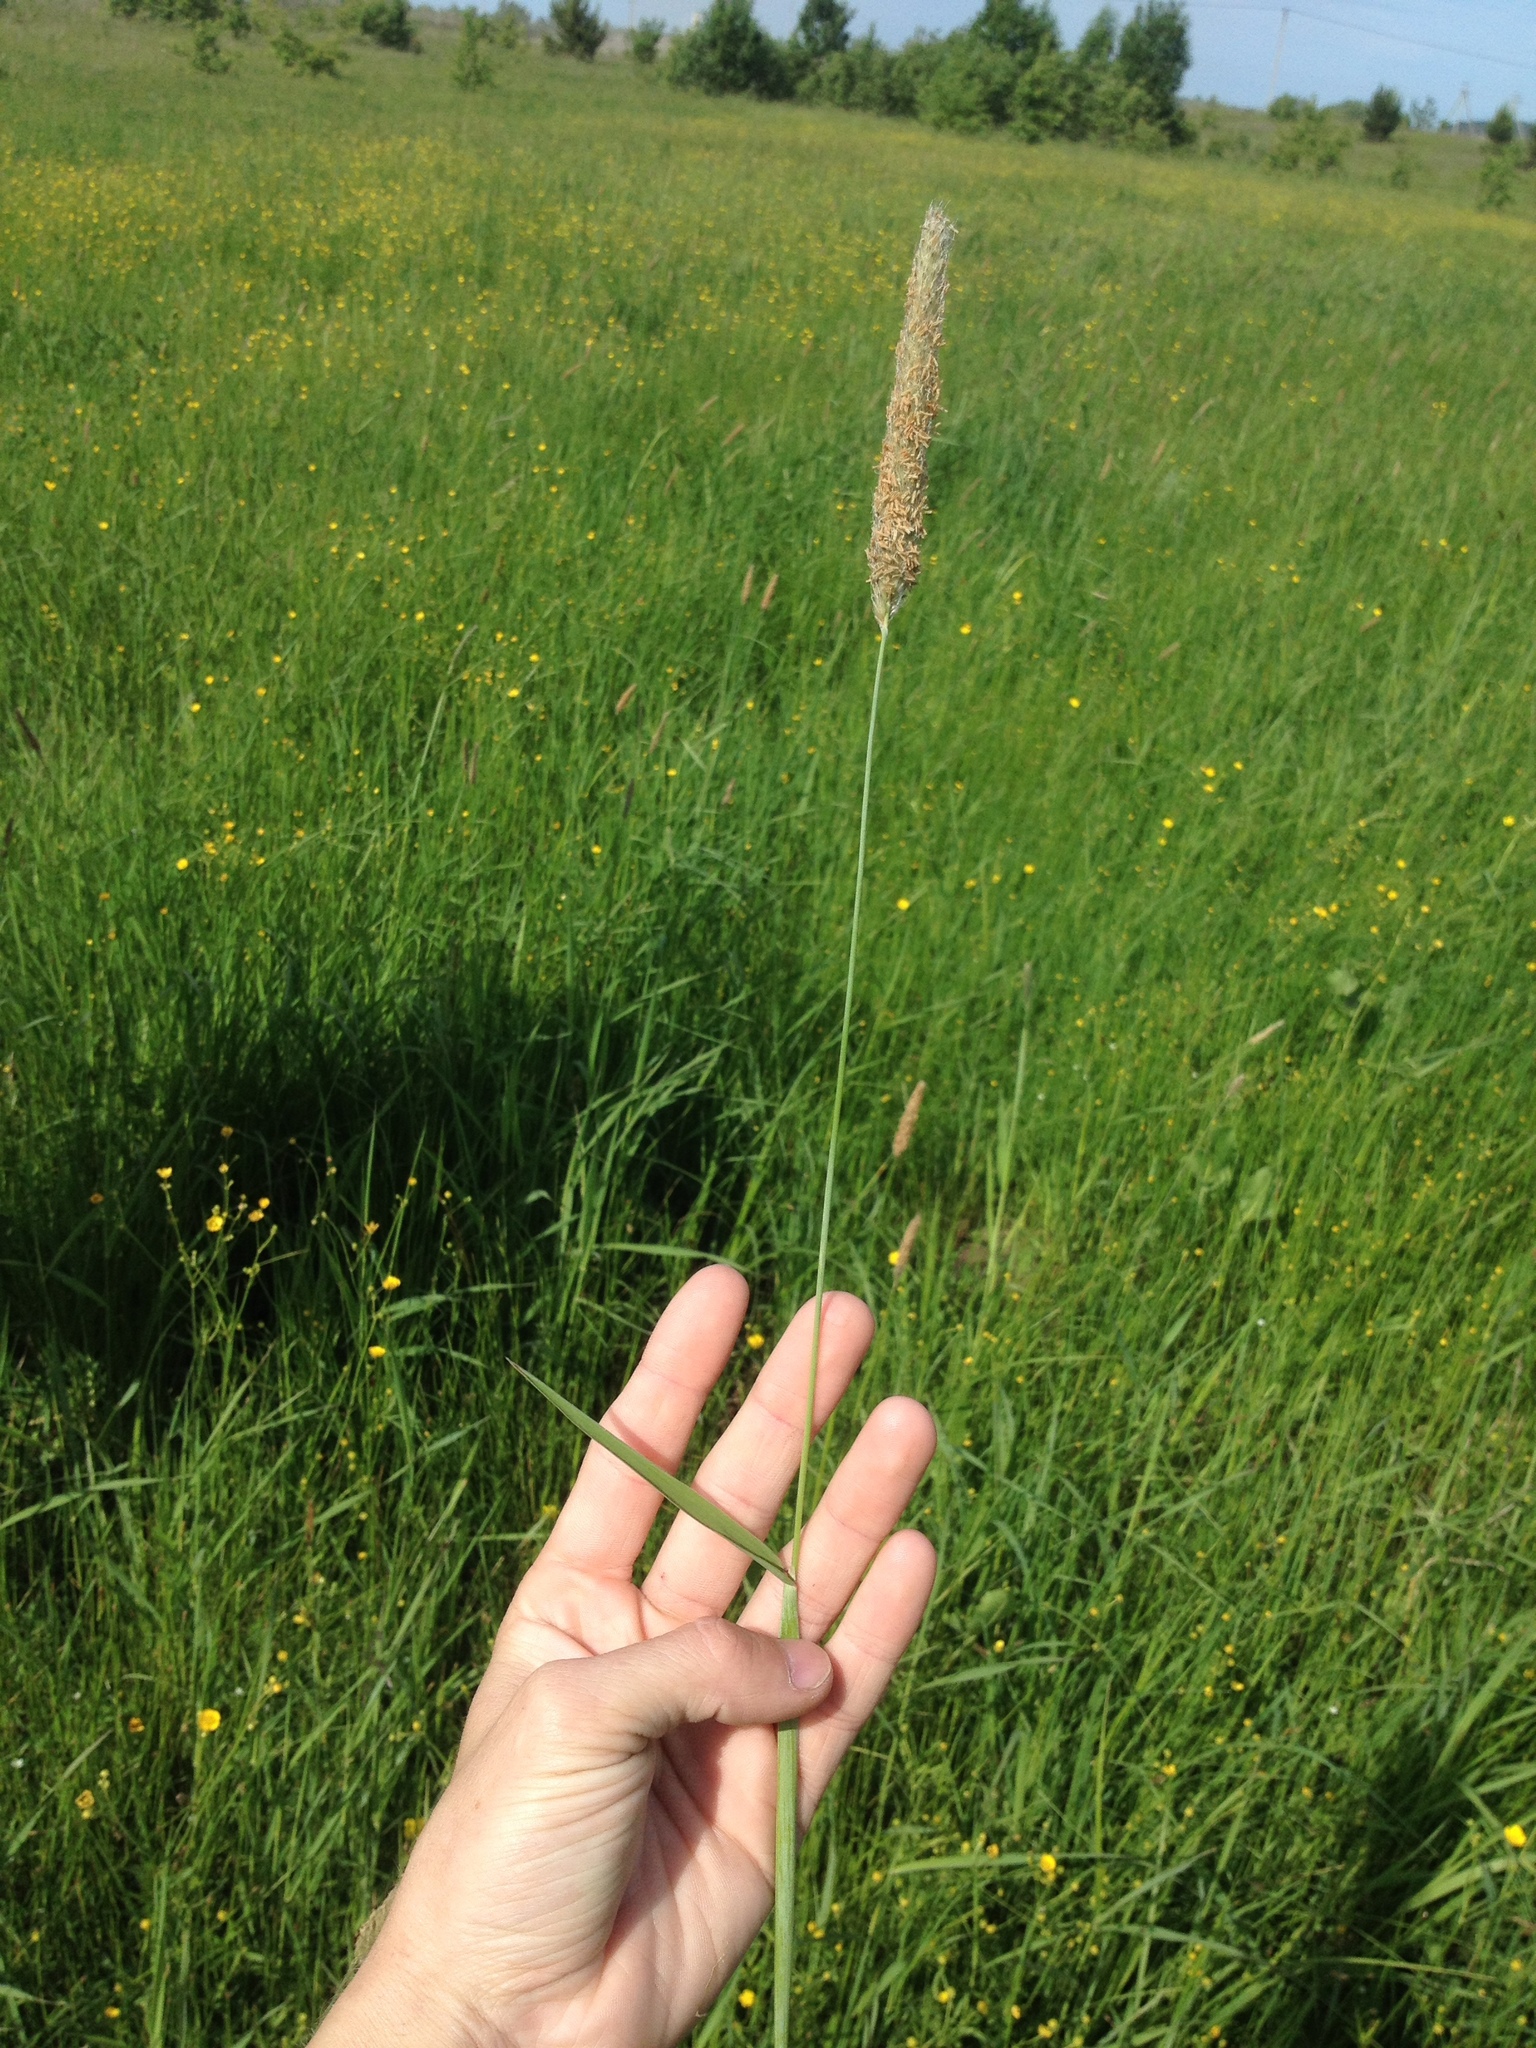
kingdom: Plantae
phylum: Tracheophyta
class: Liliopsida
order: Poales
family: Poaceae
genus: Alopecurus
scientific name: Alopecurus pratensis
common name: Meadow foxtail
